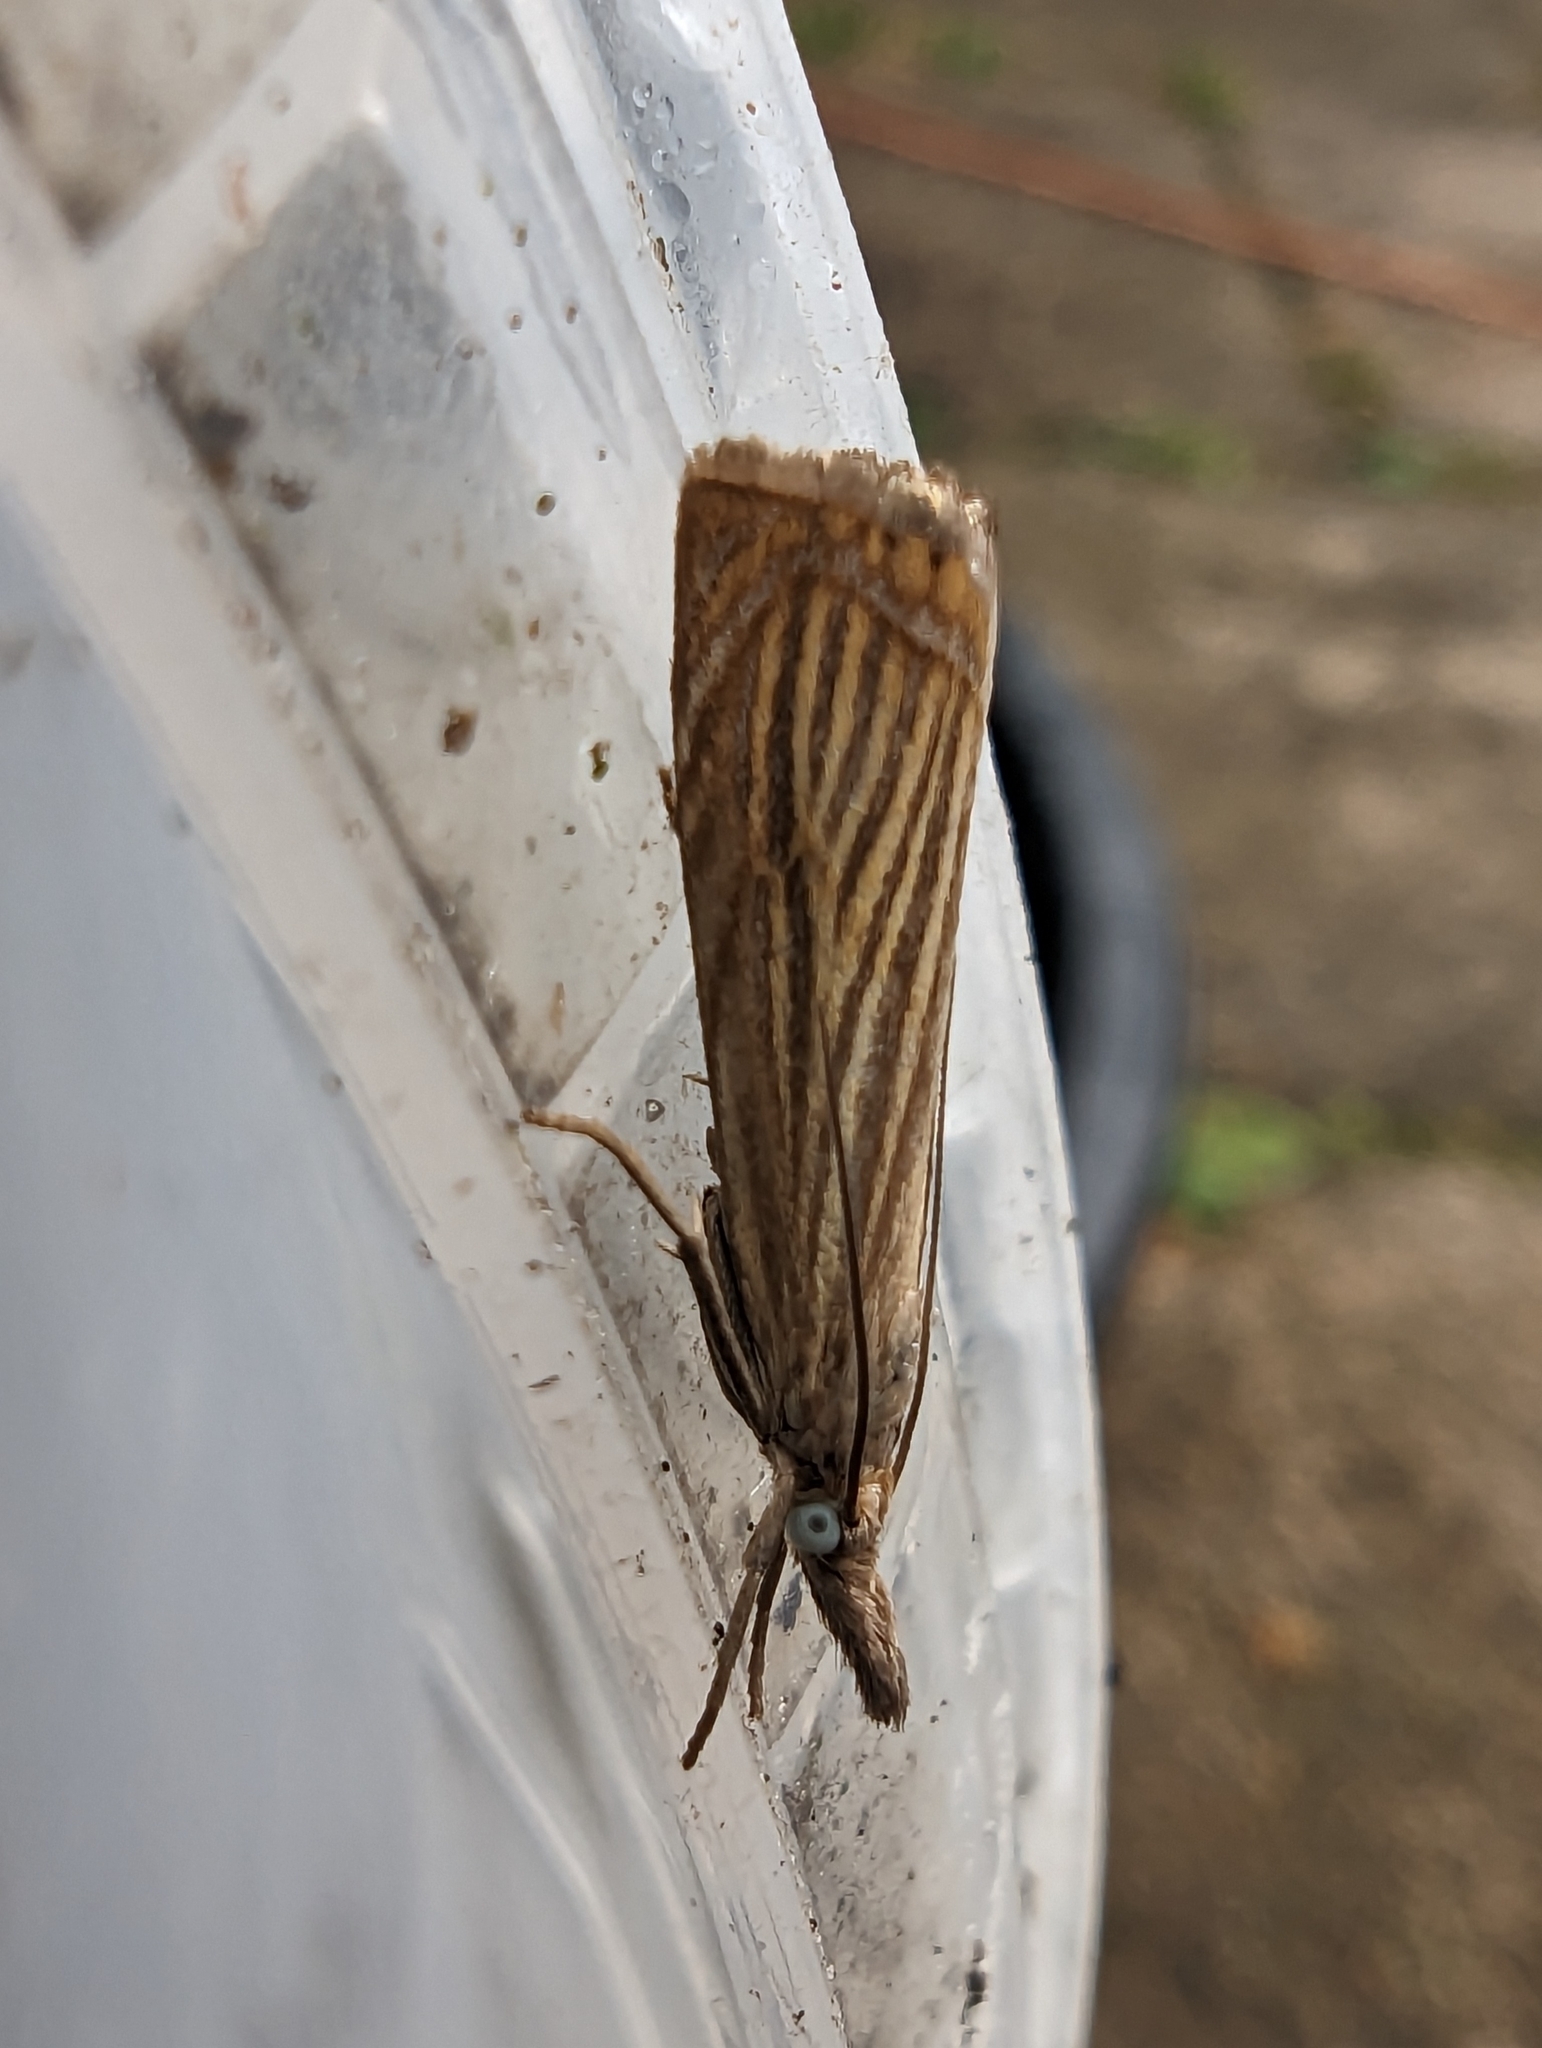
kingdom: Animalia
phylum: Arthropoda
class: Insecta
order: Lepidoptera
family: Crambidae
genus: Chrysoteuchia
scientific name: Chrysoteuchia culmella
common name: Garden grass-veneer
